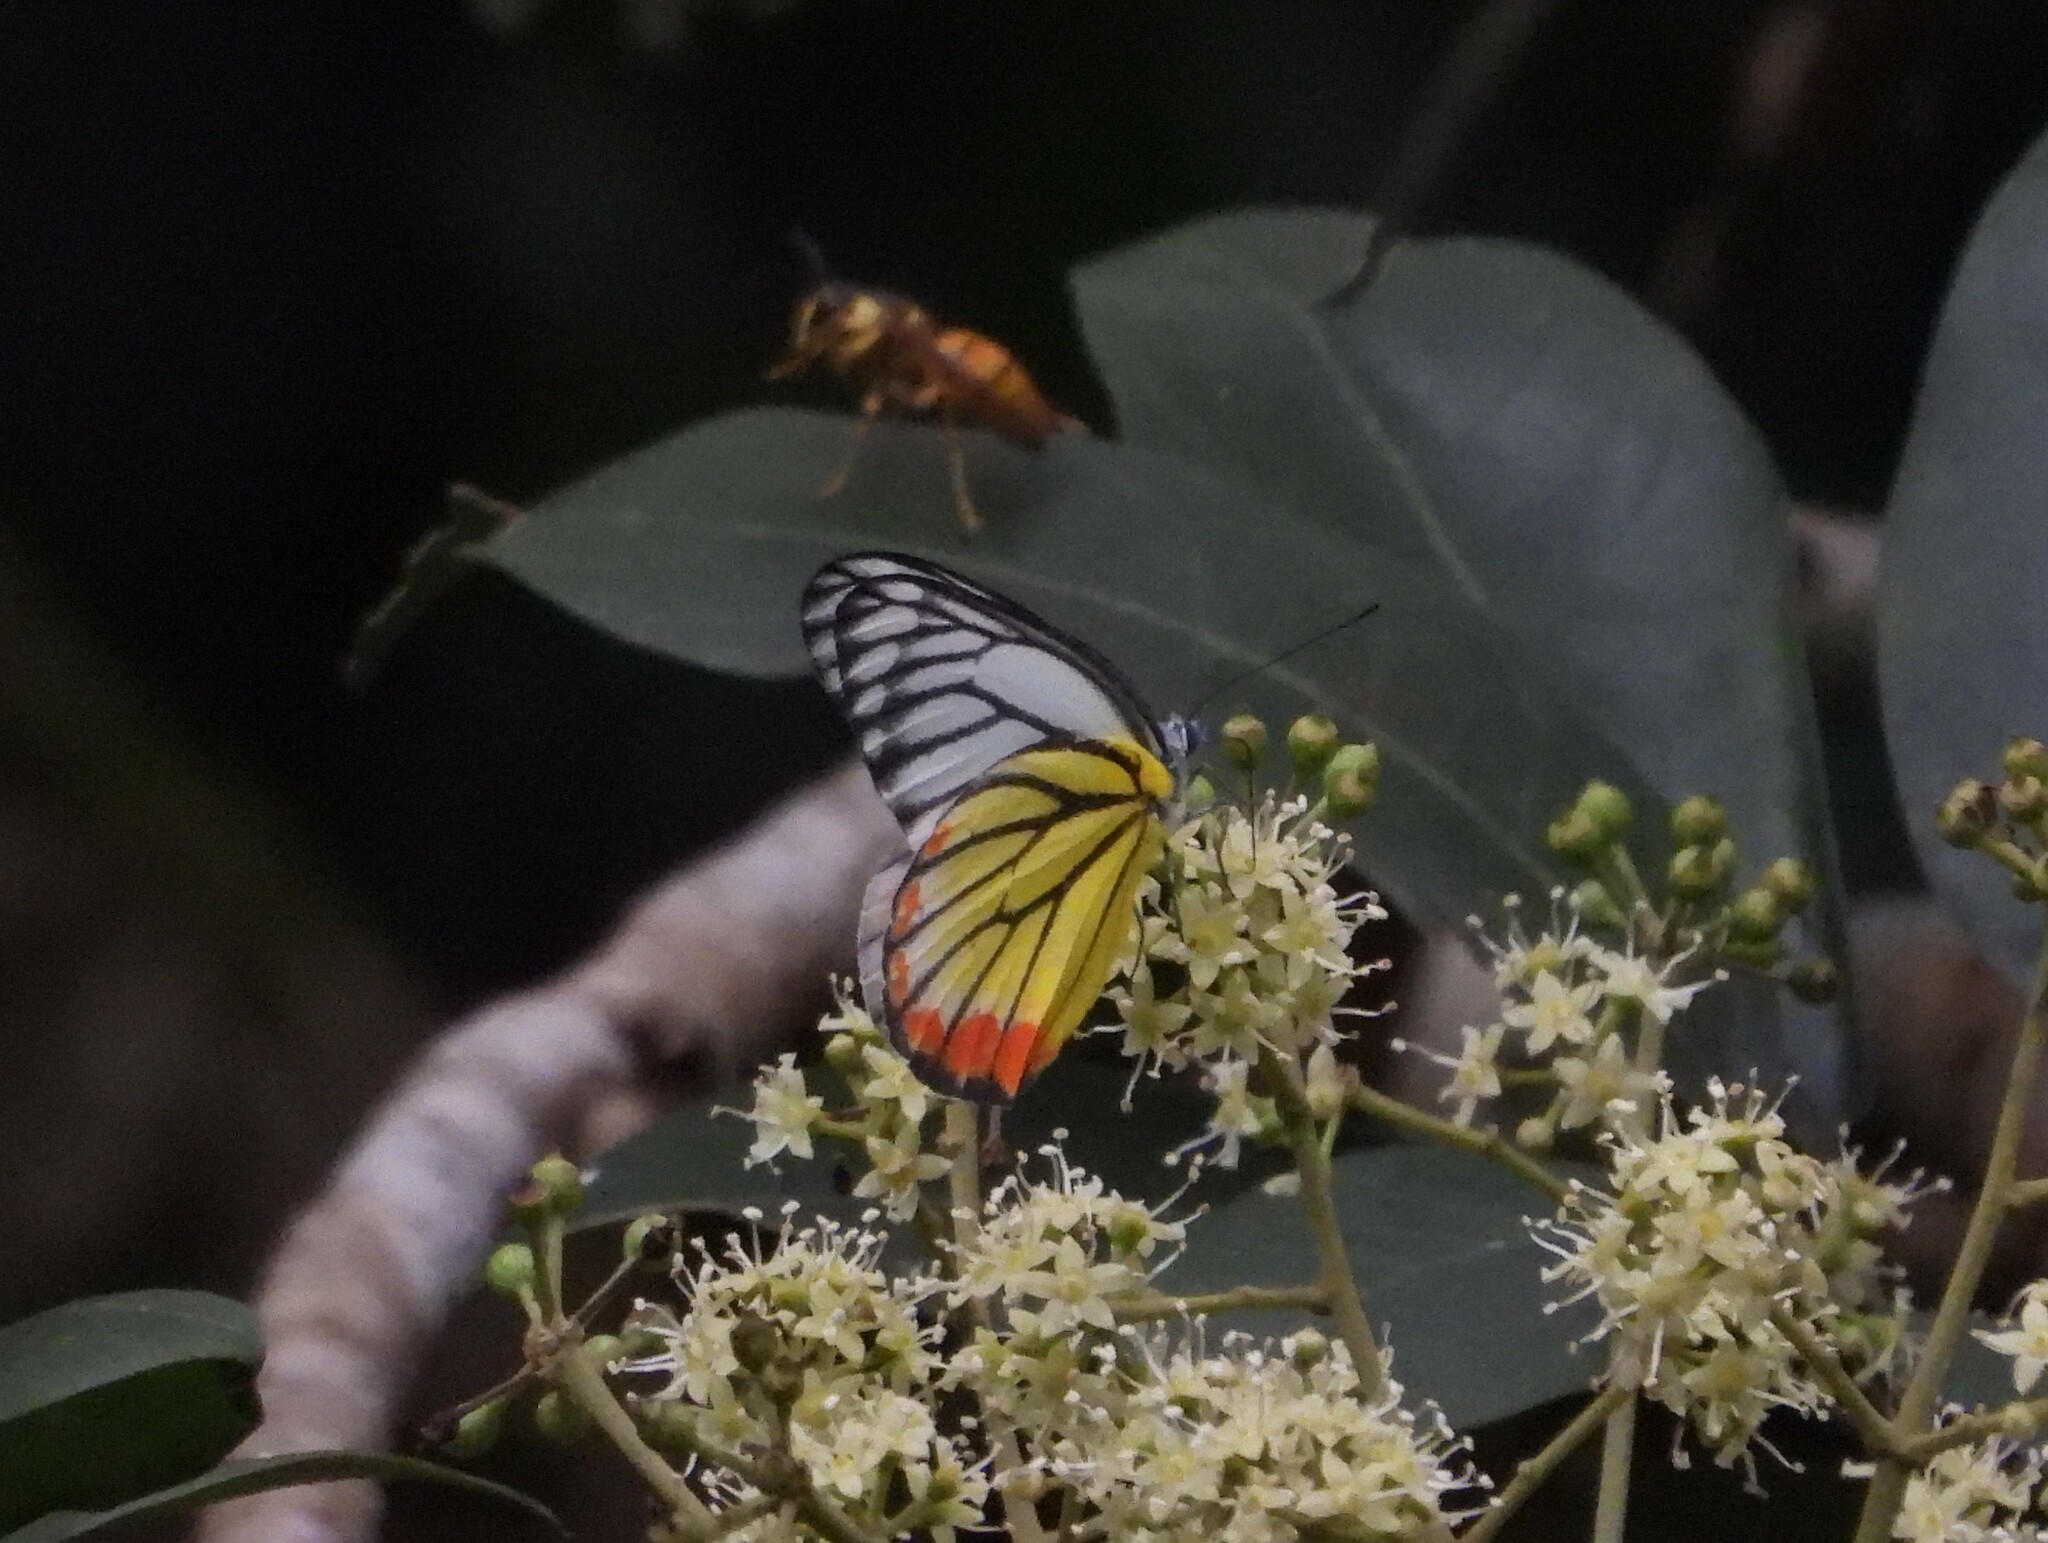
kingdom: Animalia
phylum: Arthropoda
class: Insecta
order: Lepidoptera
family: Pieridae
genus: Delias
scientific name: Delias hyparete
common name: Painted jezebel
